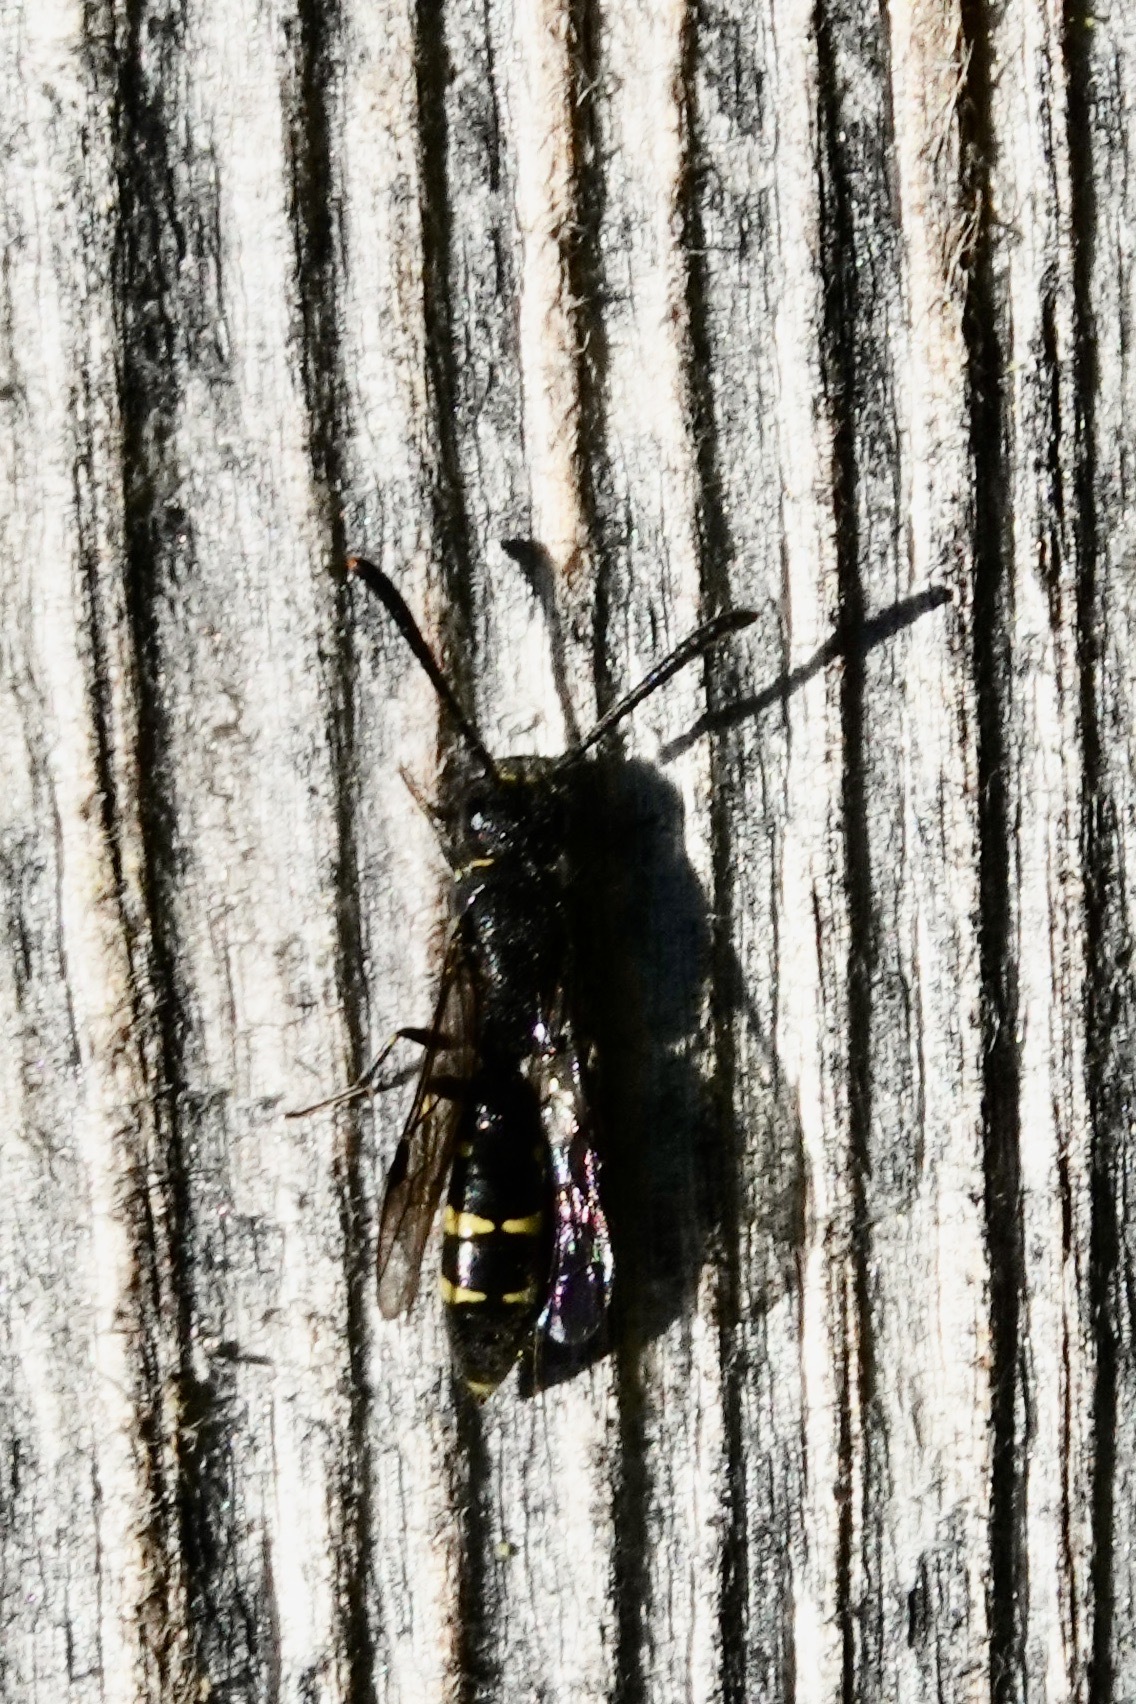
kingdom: Animalia
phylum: Arthropoda
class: Insecta
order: Hymenoptera
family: Sapygidae
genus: Monosapyga
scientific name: Monosapyga clavicornis
